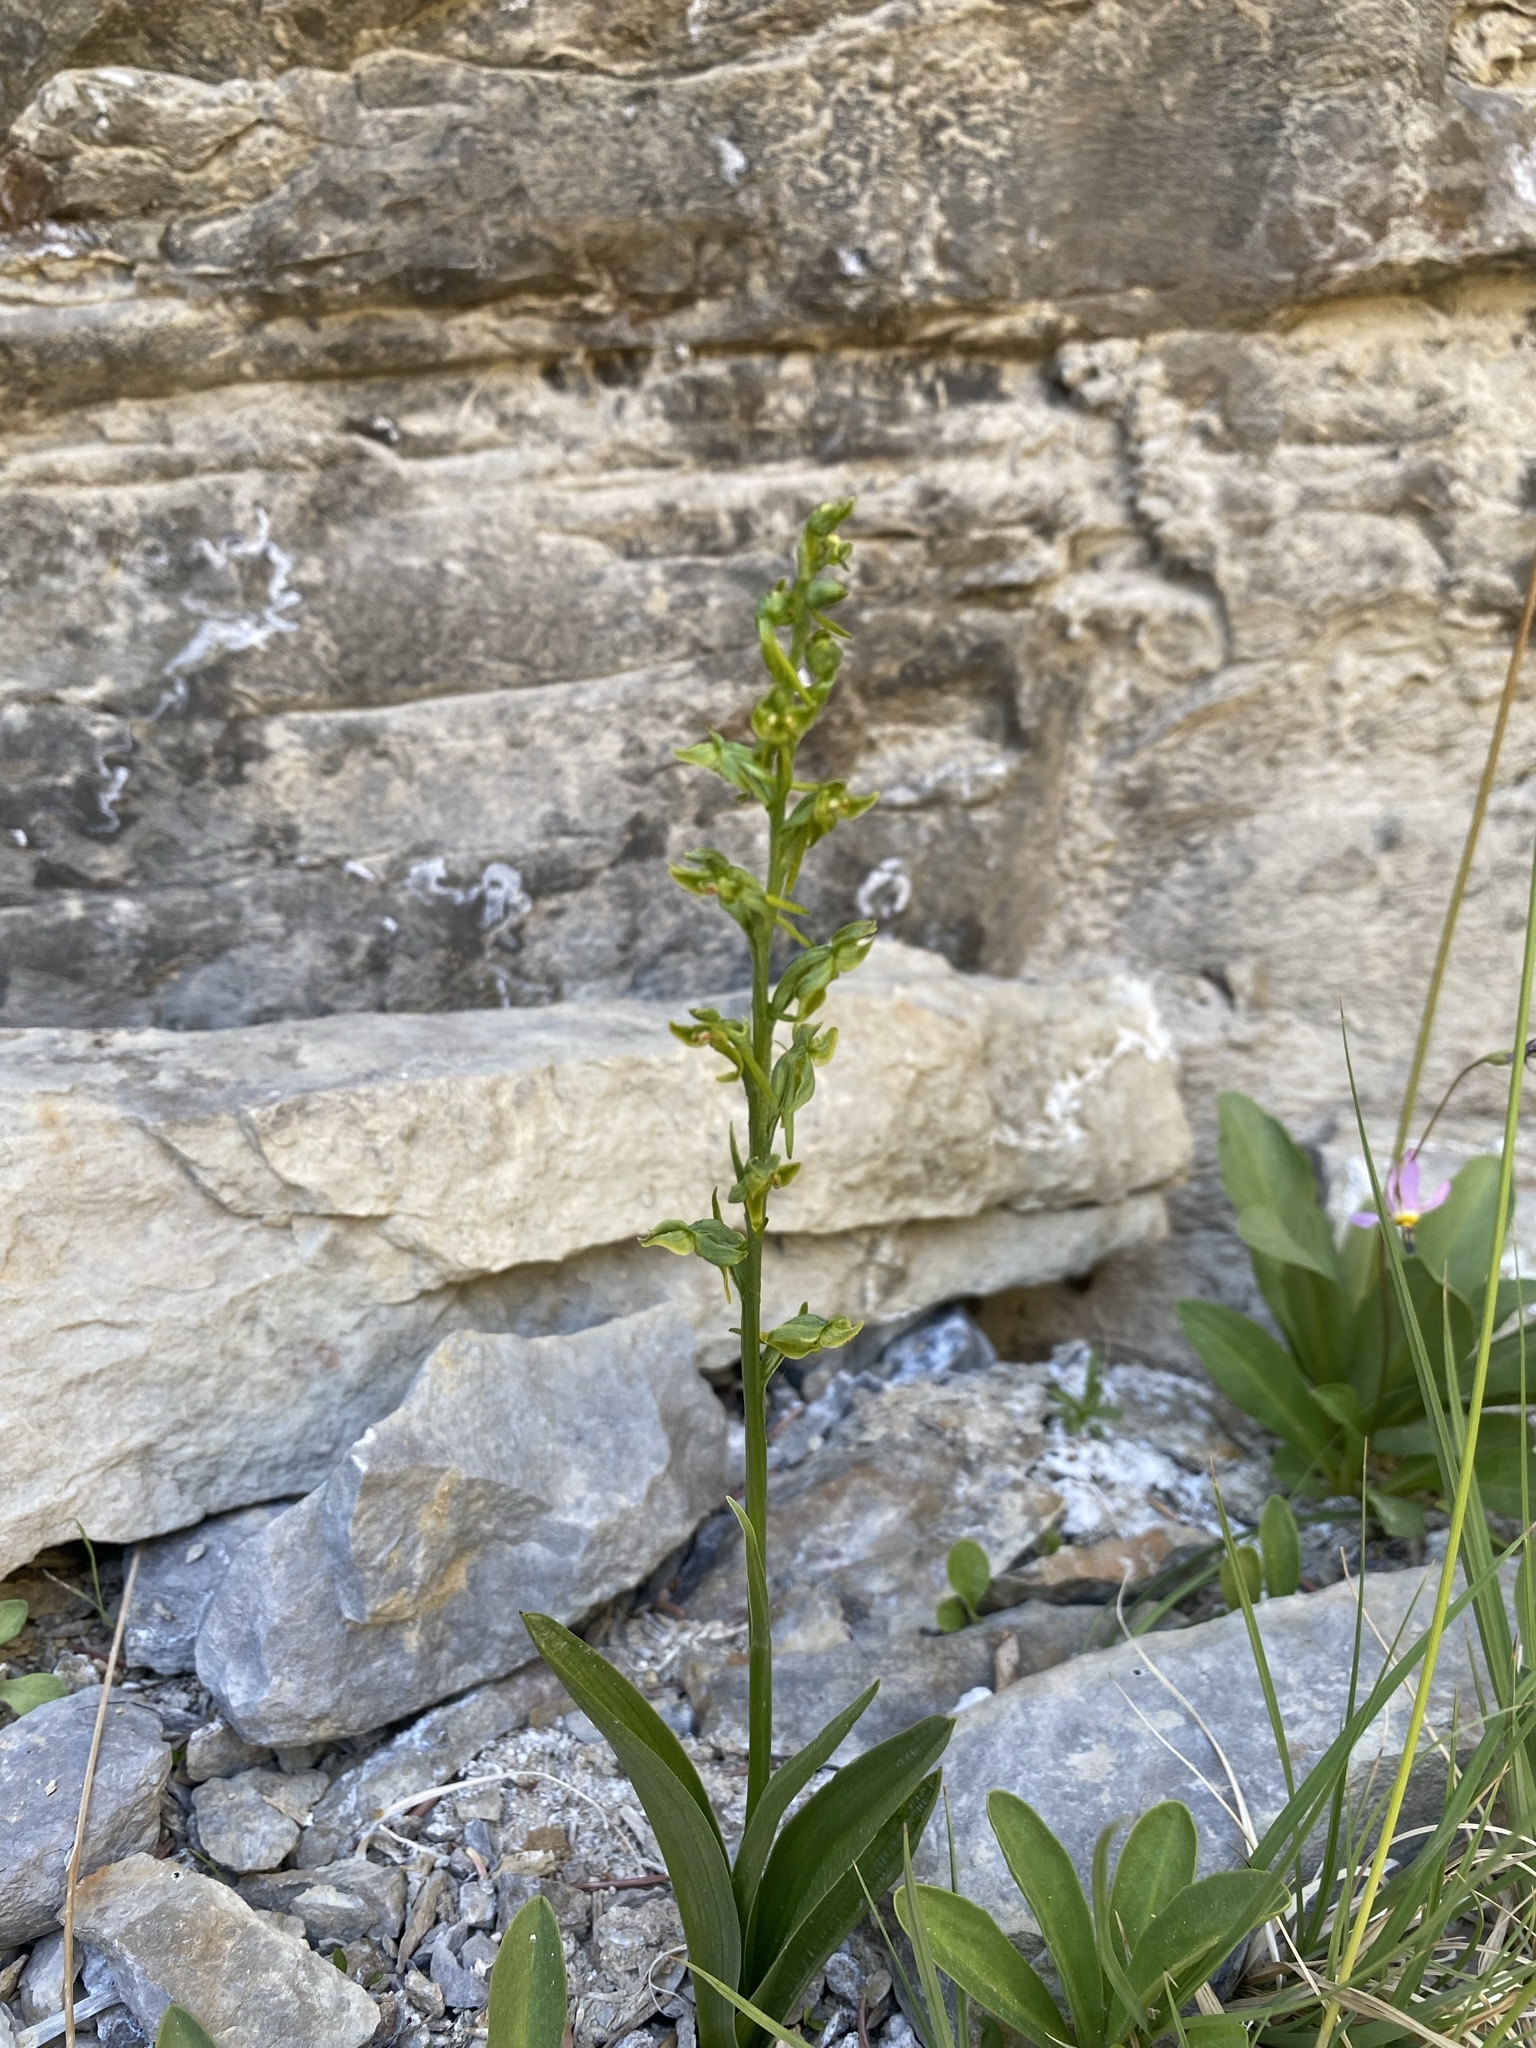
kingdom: Plantae
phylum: Tracheophyta
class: Liliopsida
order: Asparagales
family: Orchidaceae
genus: Platanthera
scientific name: Platanthera sparsiflora
